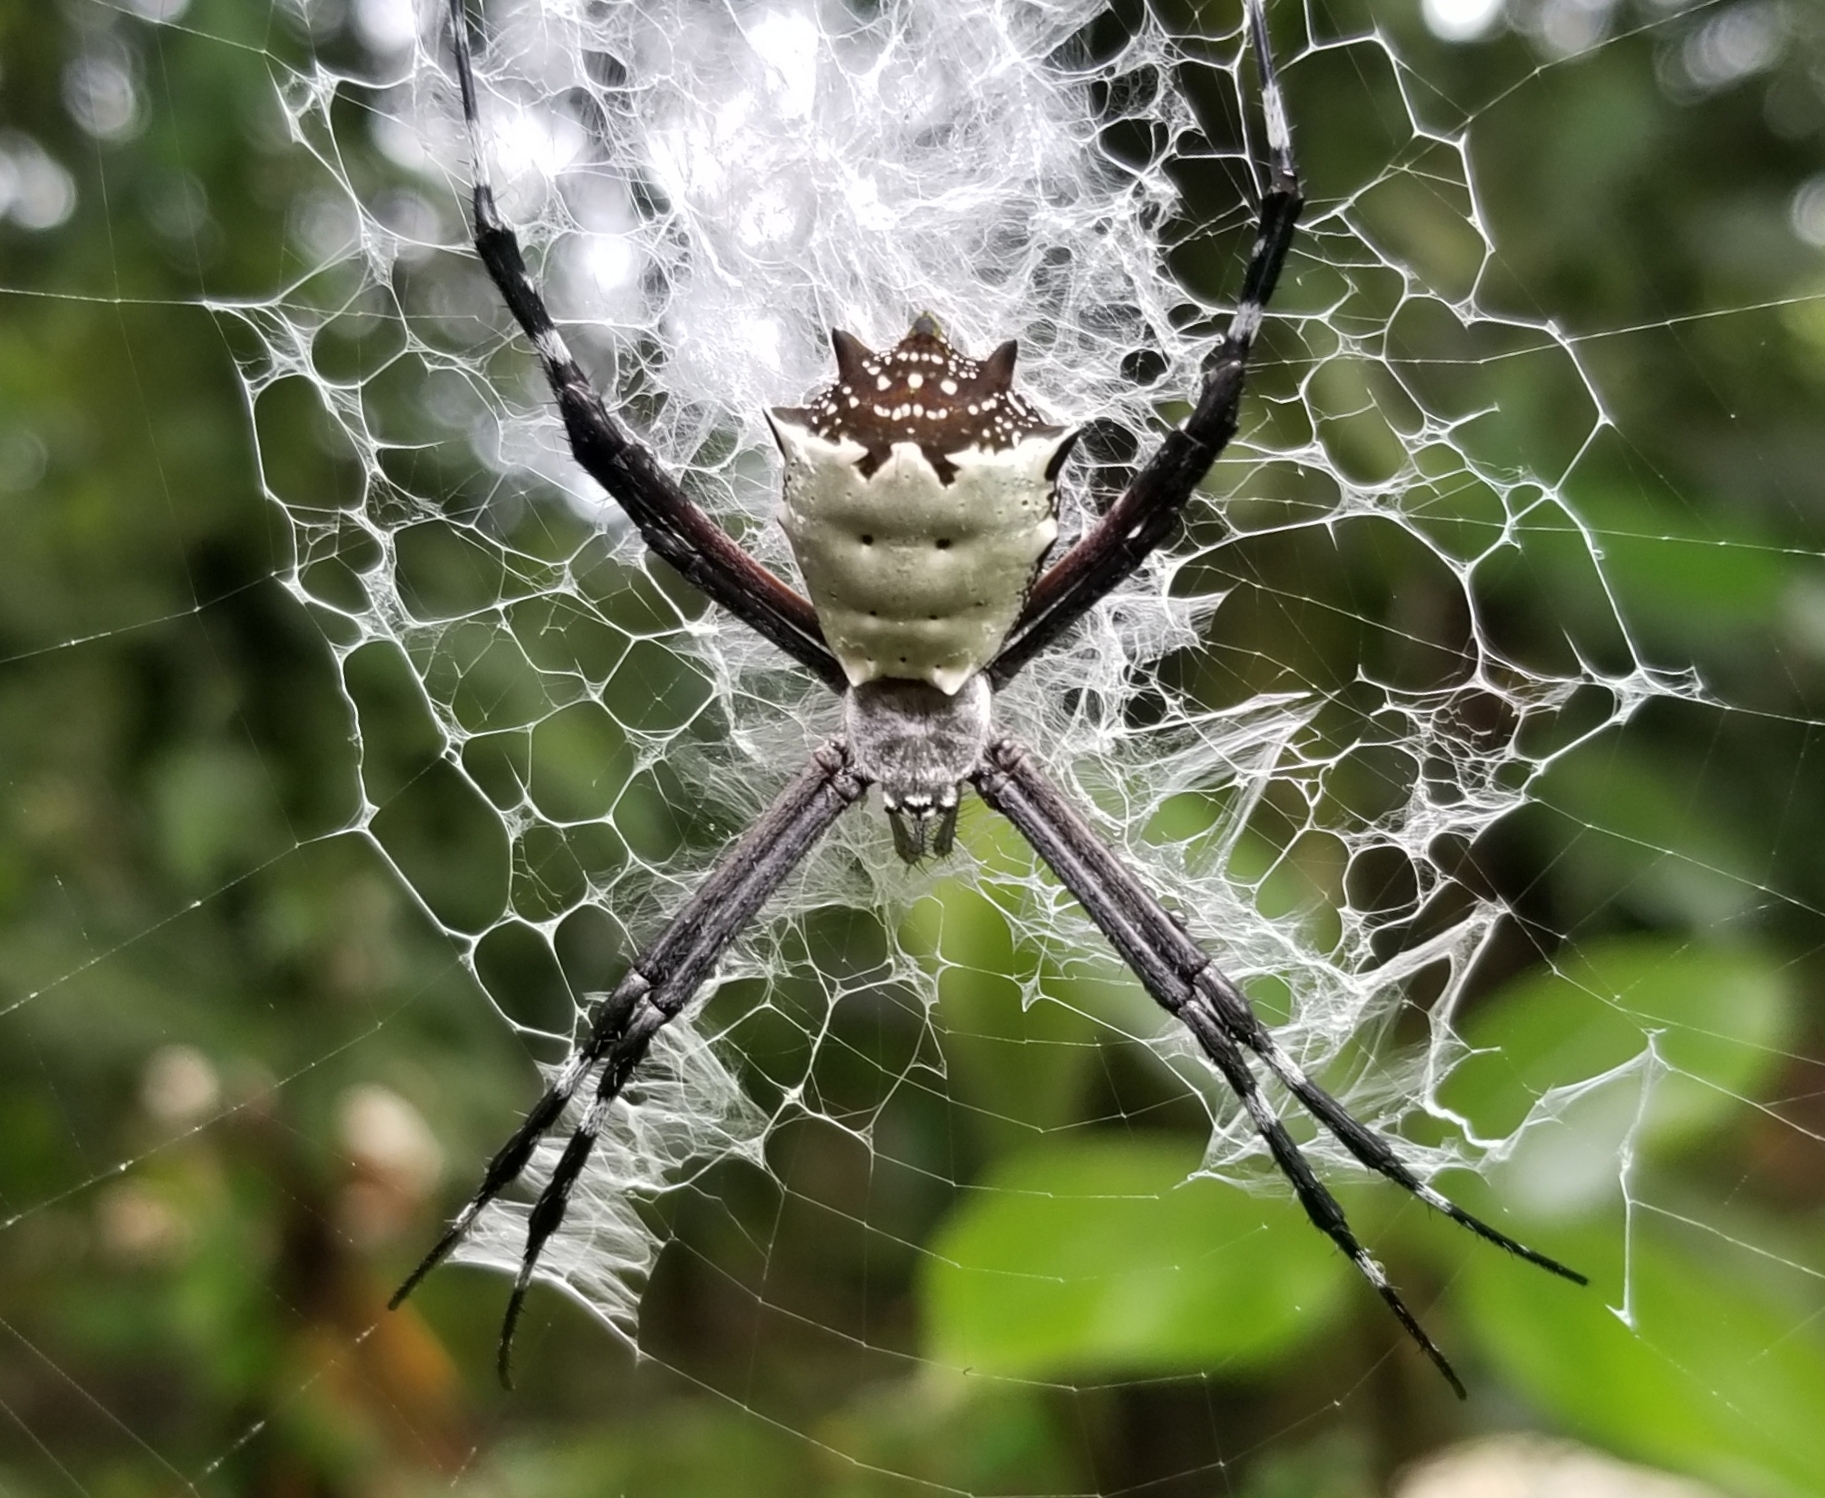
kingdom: Animalia
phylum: Arthropoda
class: Arachnida
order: Araneae
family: Araneidae
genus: Argiope
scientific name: Argiope submaronica
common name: Orb weavers
